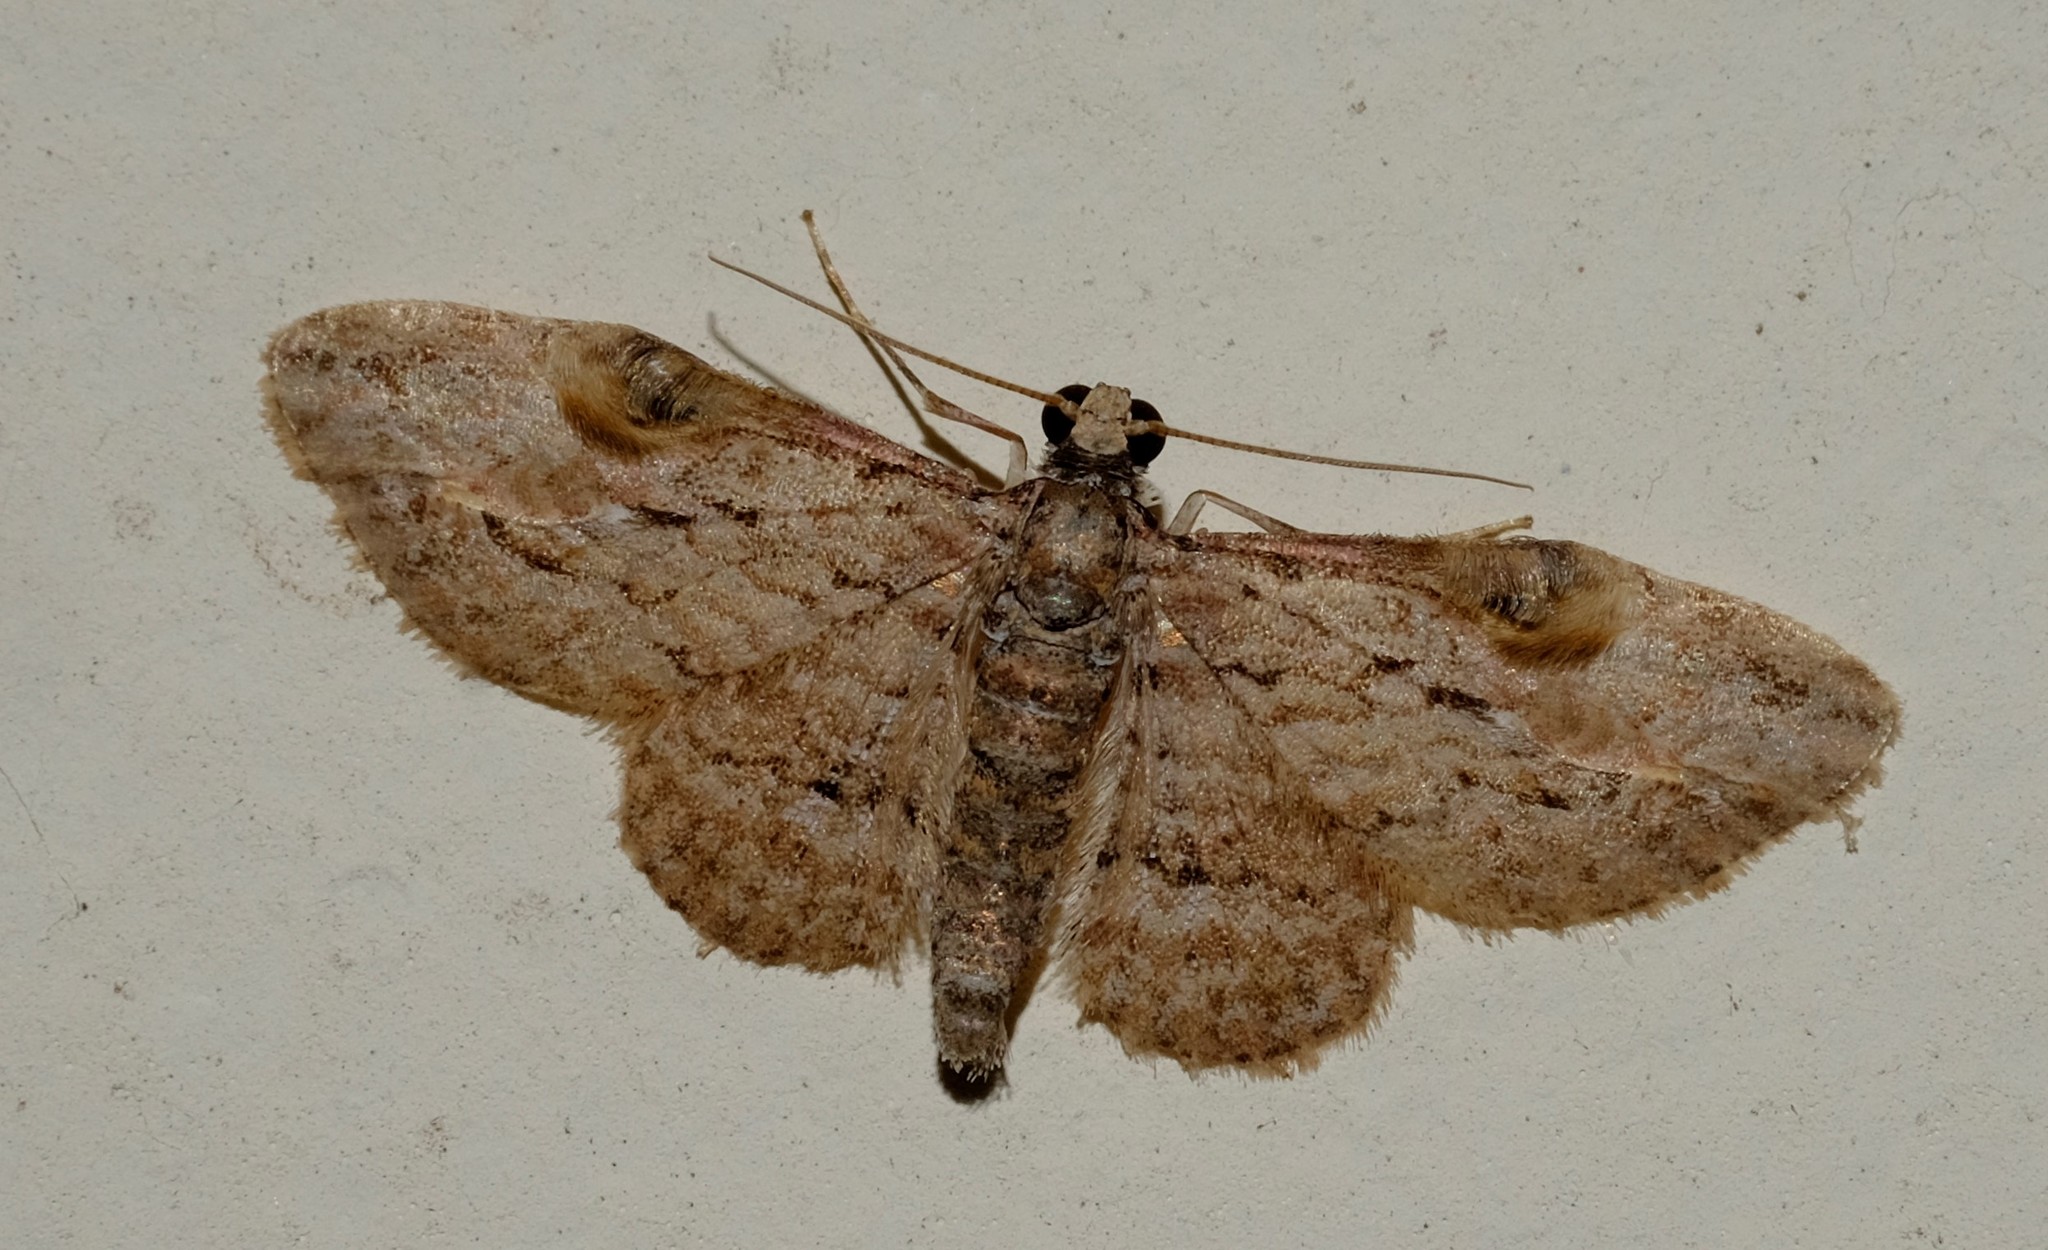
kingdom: Animalia
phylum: Arthropoda
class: Insecta
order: Lepidoptera
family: Geometridae
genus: Chloroclystis
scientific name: Chloroclystis insigillata
